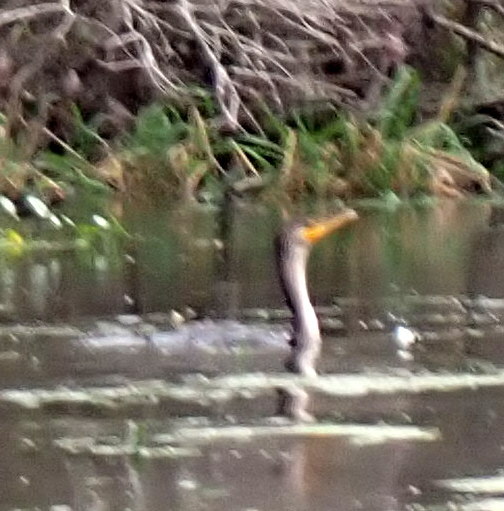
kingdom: Animalia
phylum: Chordata
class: Aves
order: Suliformes
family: Phalacrocoracidae
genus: Phalacrocorax
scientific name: Phalacrocorax auritus
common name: Double-crested cormorant
